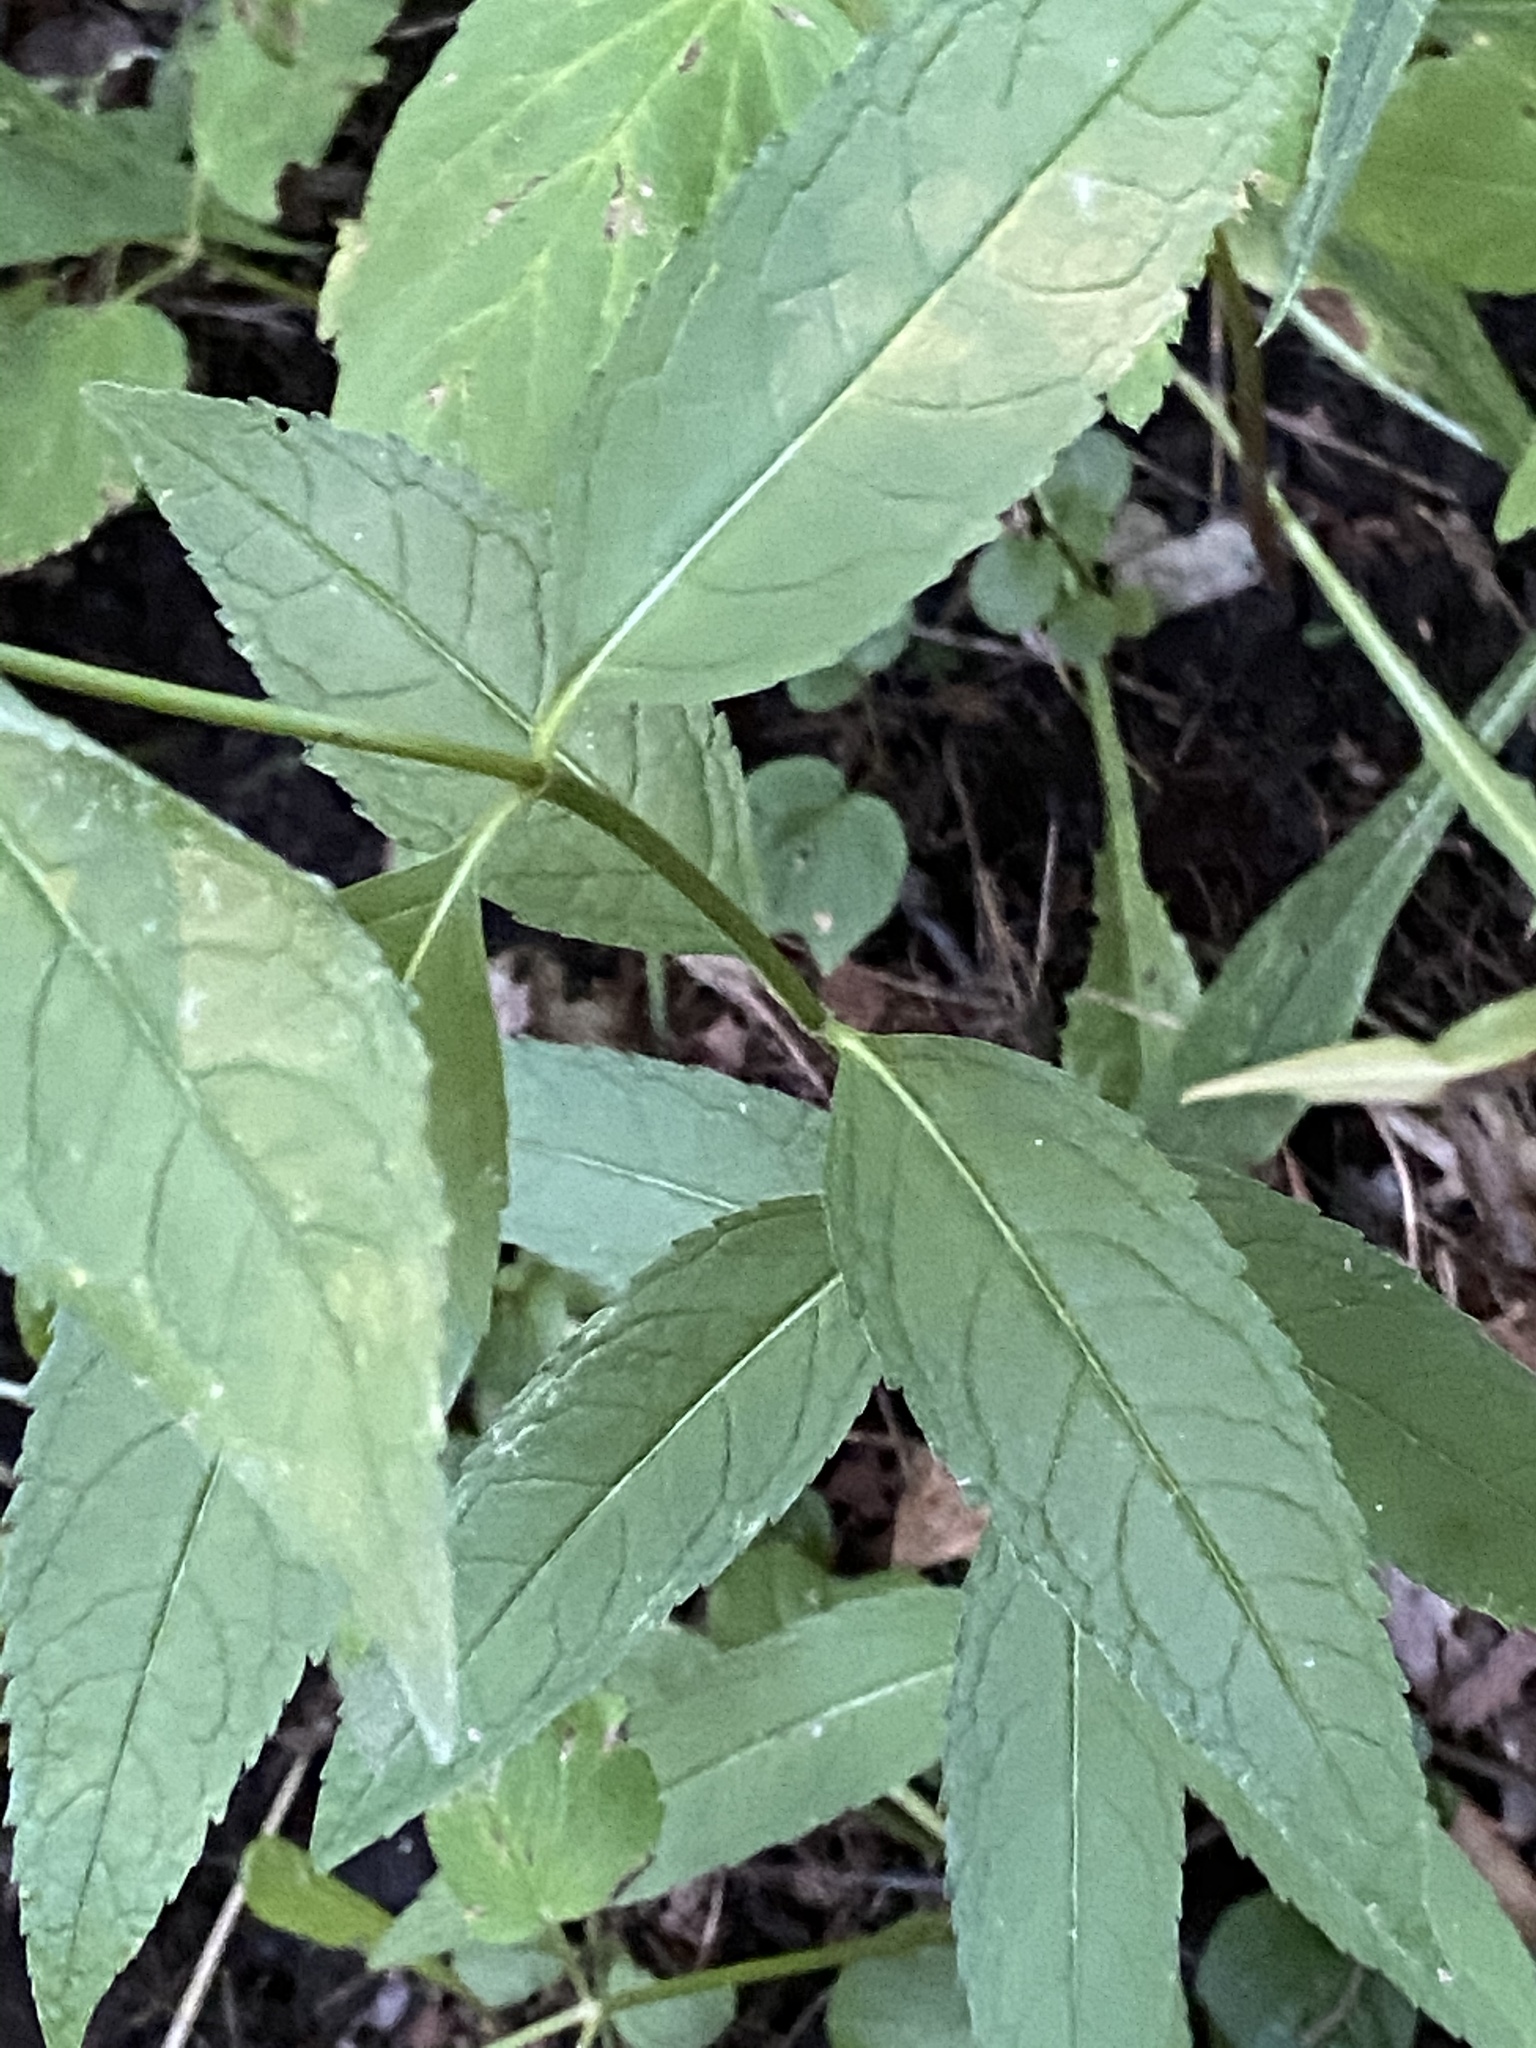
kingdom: Plantae
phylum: Tracheophyta
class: Magnoliopsida
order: Lamiales
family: Plantaginaceae
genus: Chelone
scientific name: Chelone glabra
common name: Snakehead
